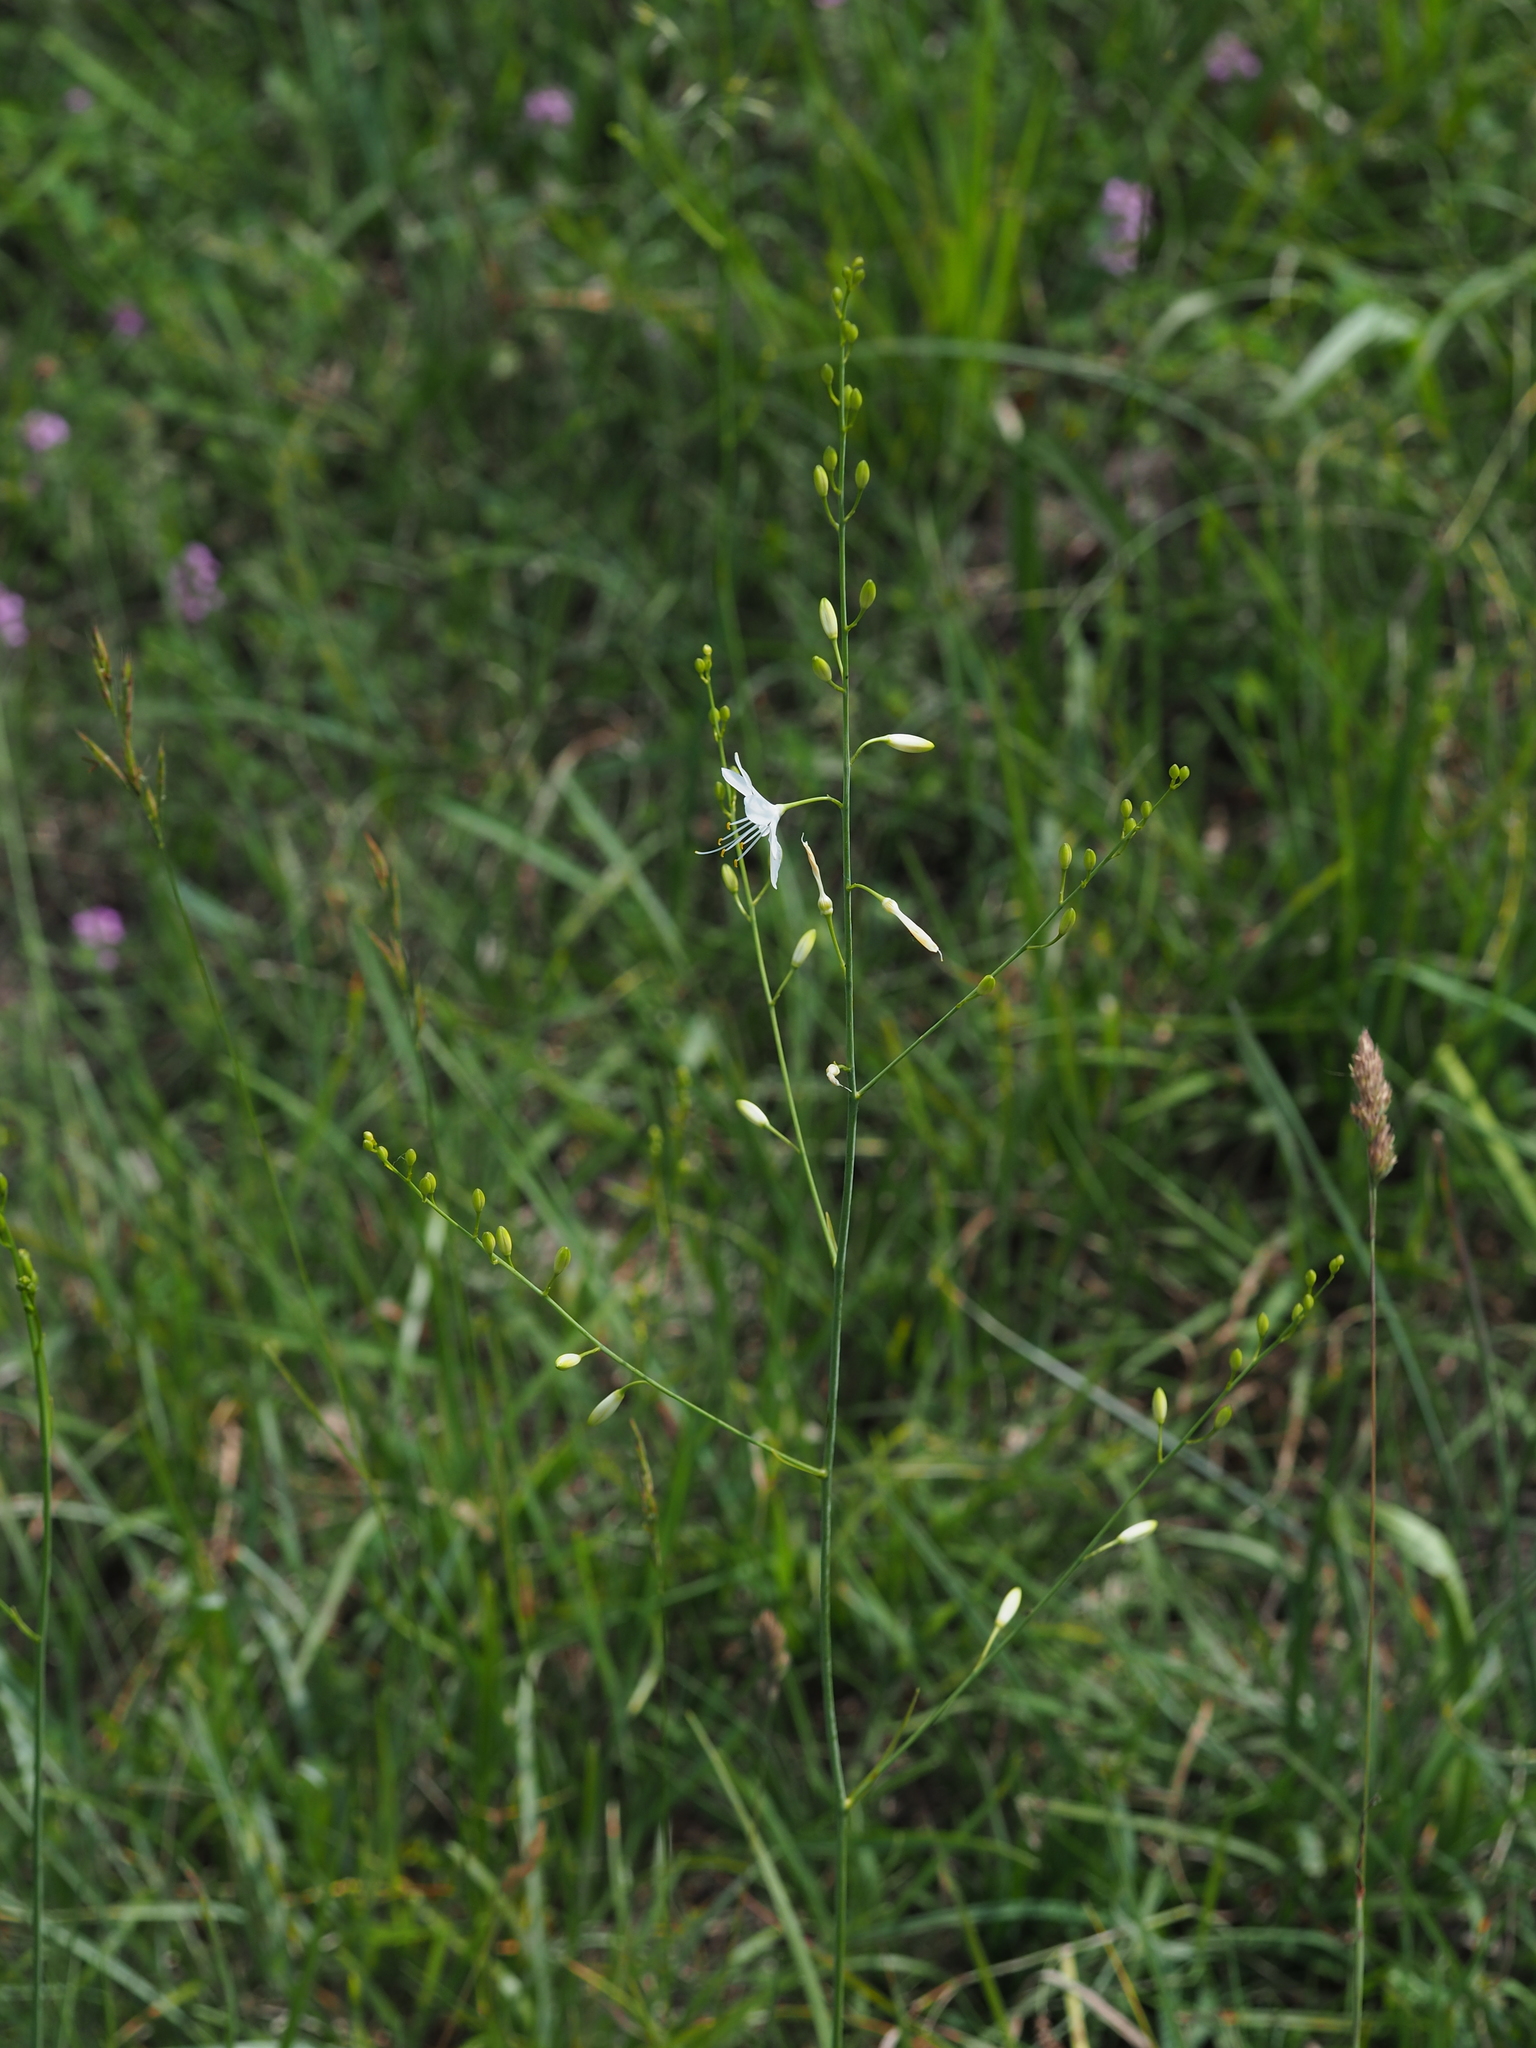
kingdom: Plantae
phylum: Tracheophyta
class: Liliopsida
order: Asparagales
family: Asparagaceae
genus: Anthericum
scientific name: Anthericum ramosum
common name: Branched st. bernard's-lily
